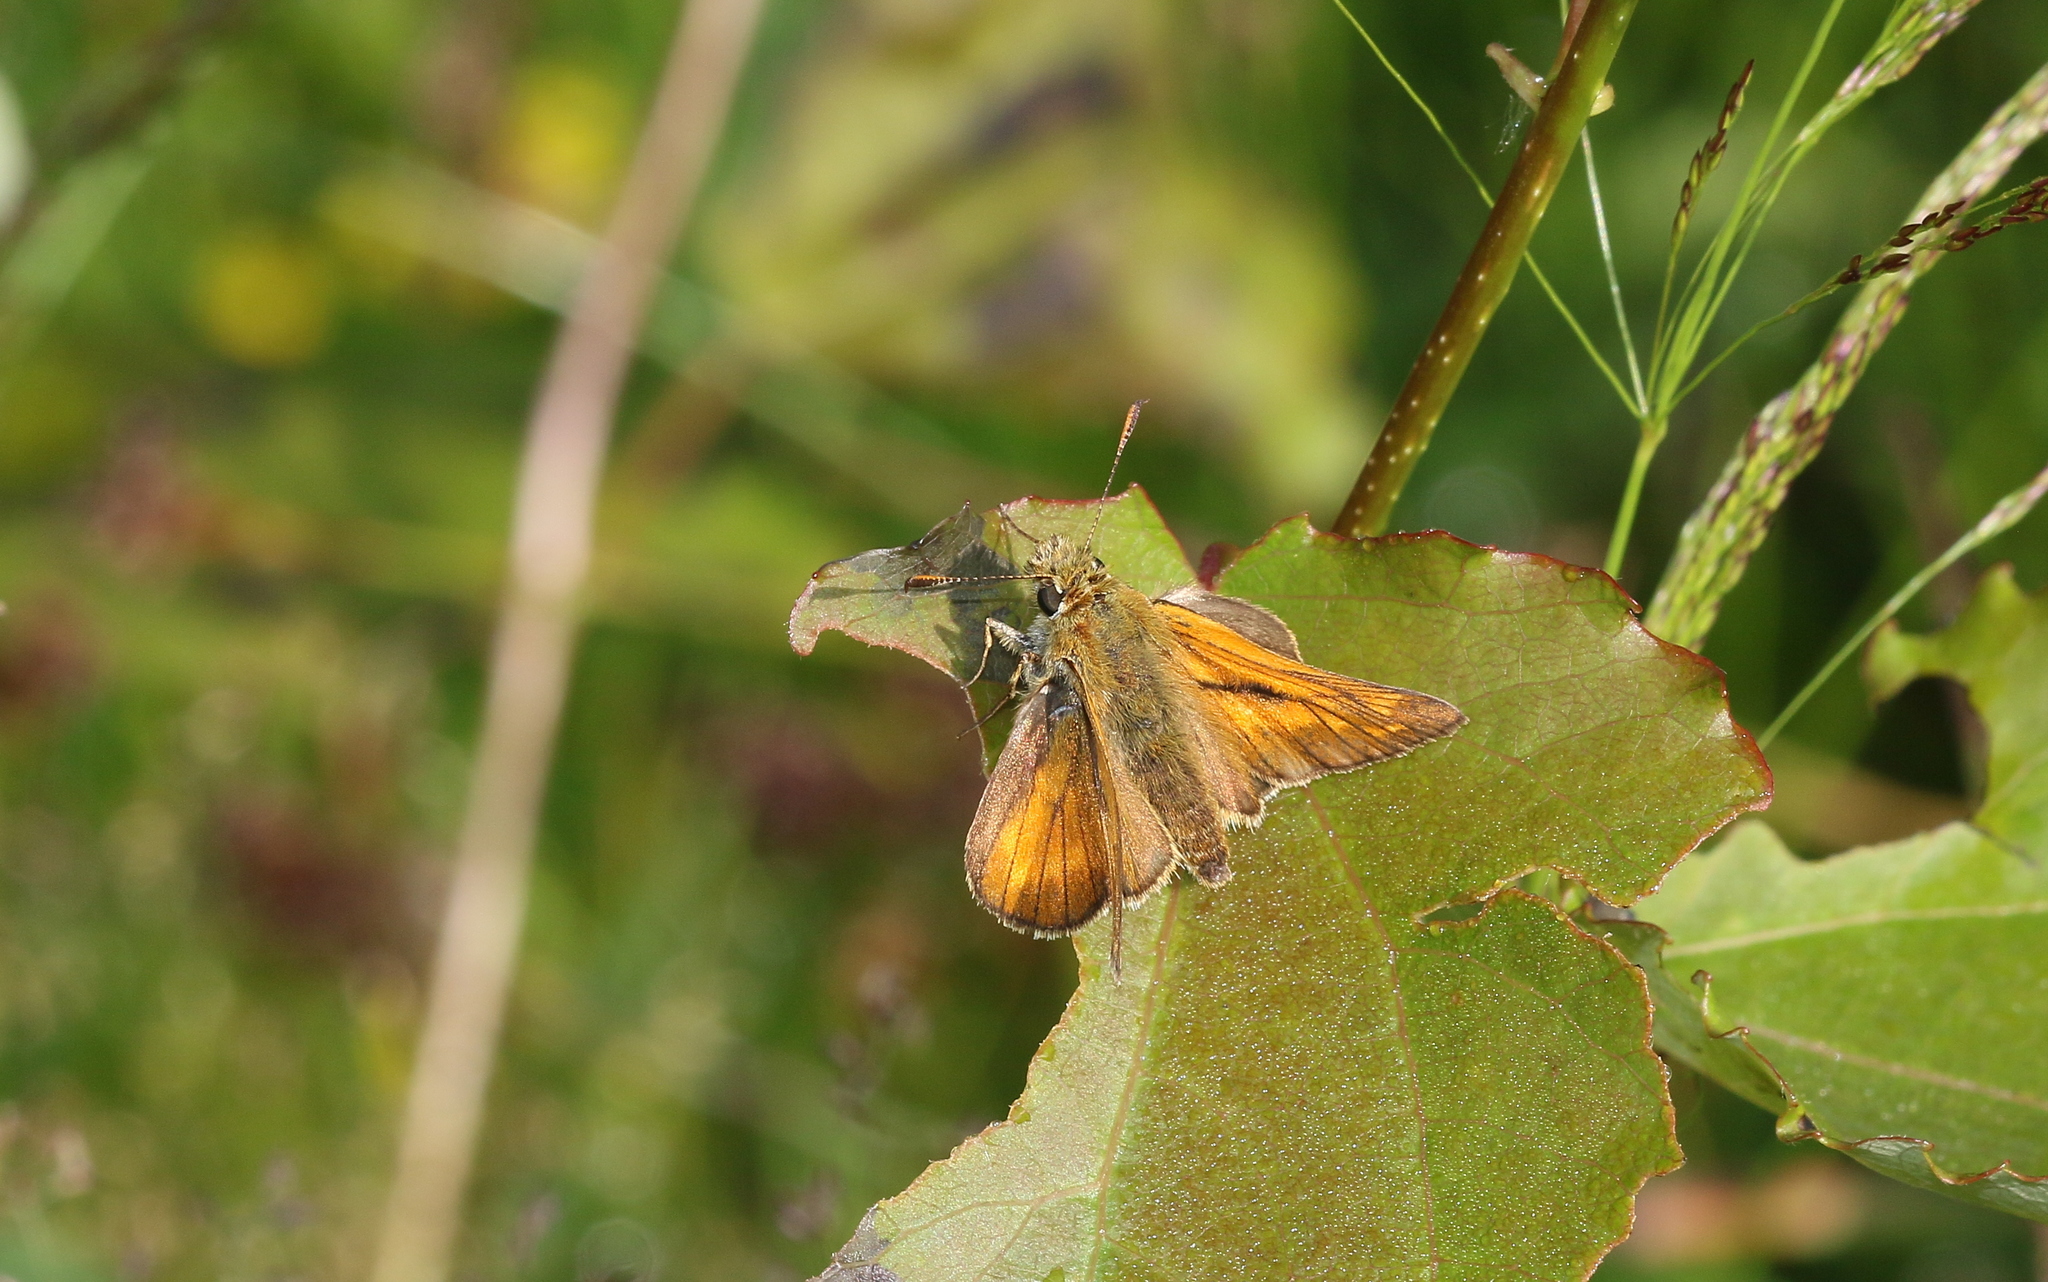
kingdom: Animalia
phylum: Arthropoda
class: Insecta
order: Lepidoptera
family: Hesperiidae
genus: Ochlodes
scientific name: Ochlodes venata
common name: Large skipper
